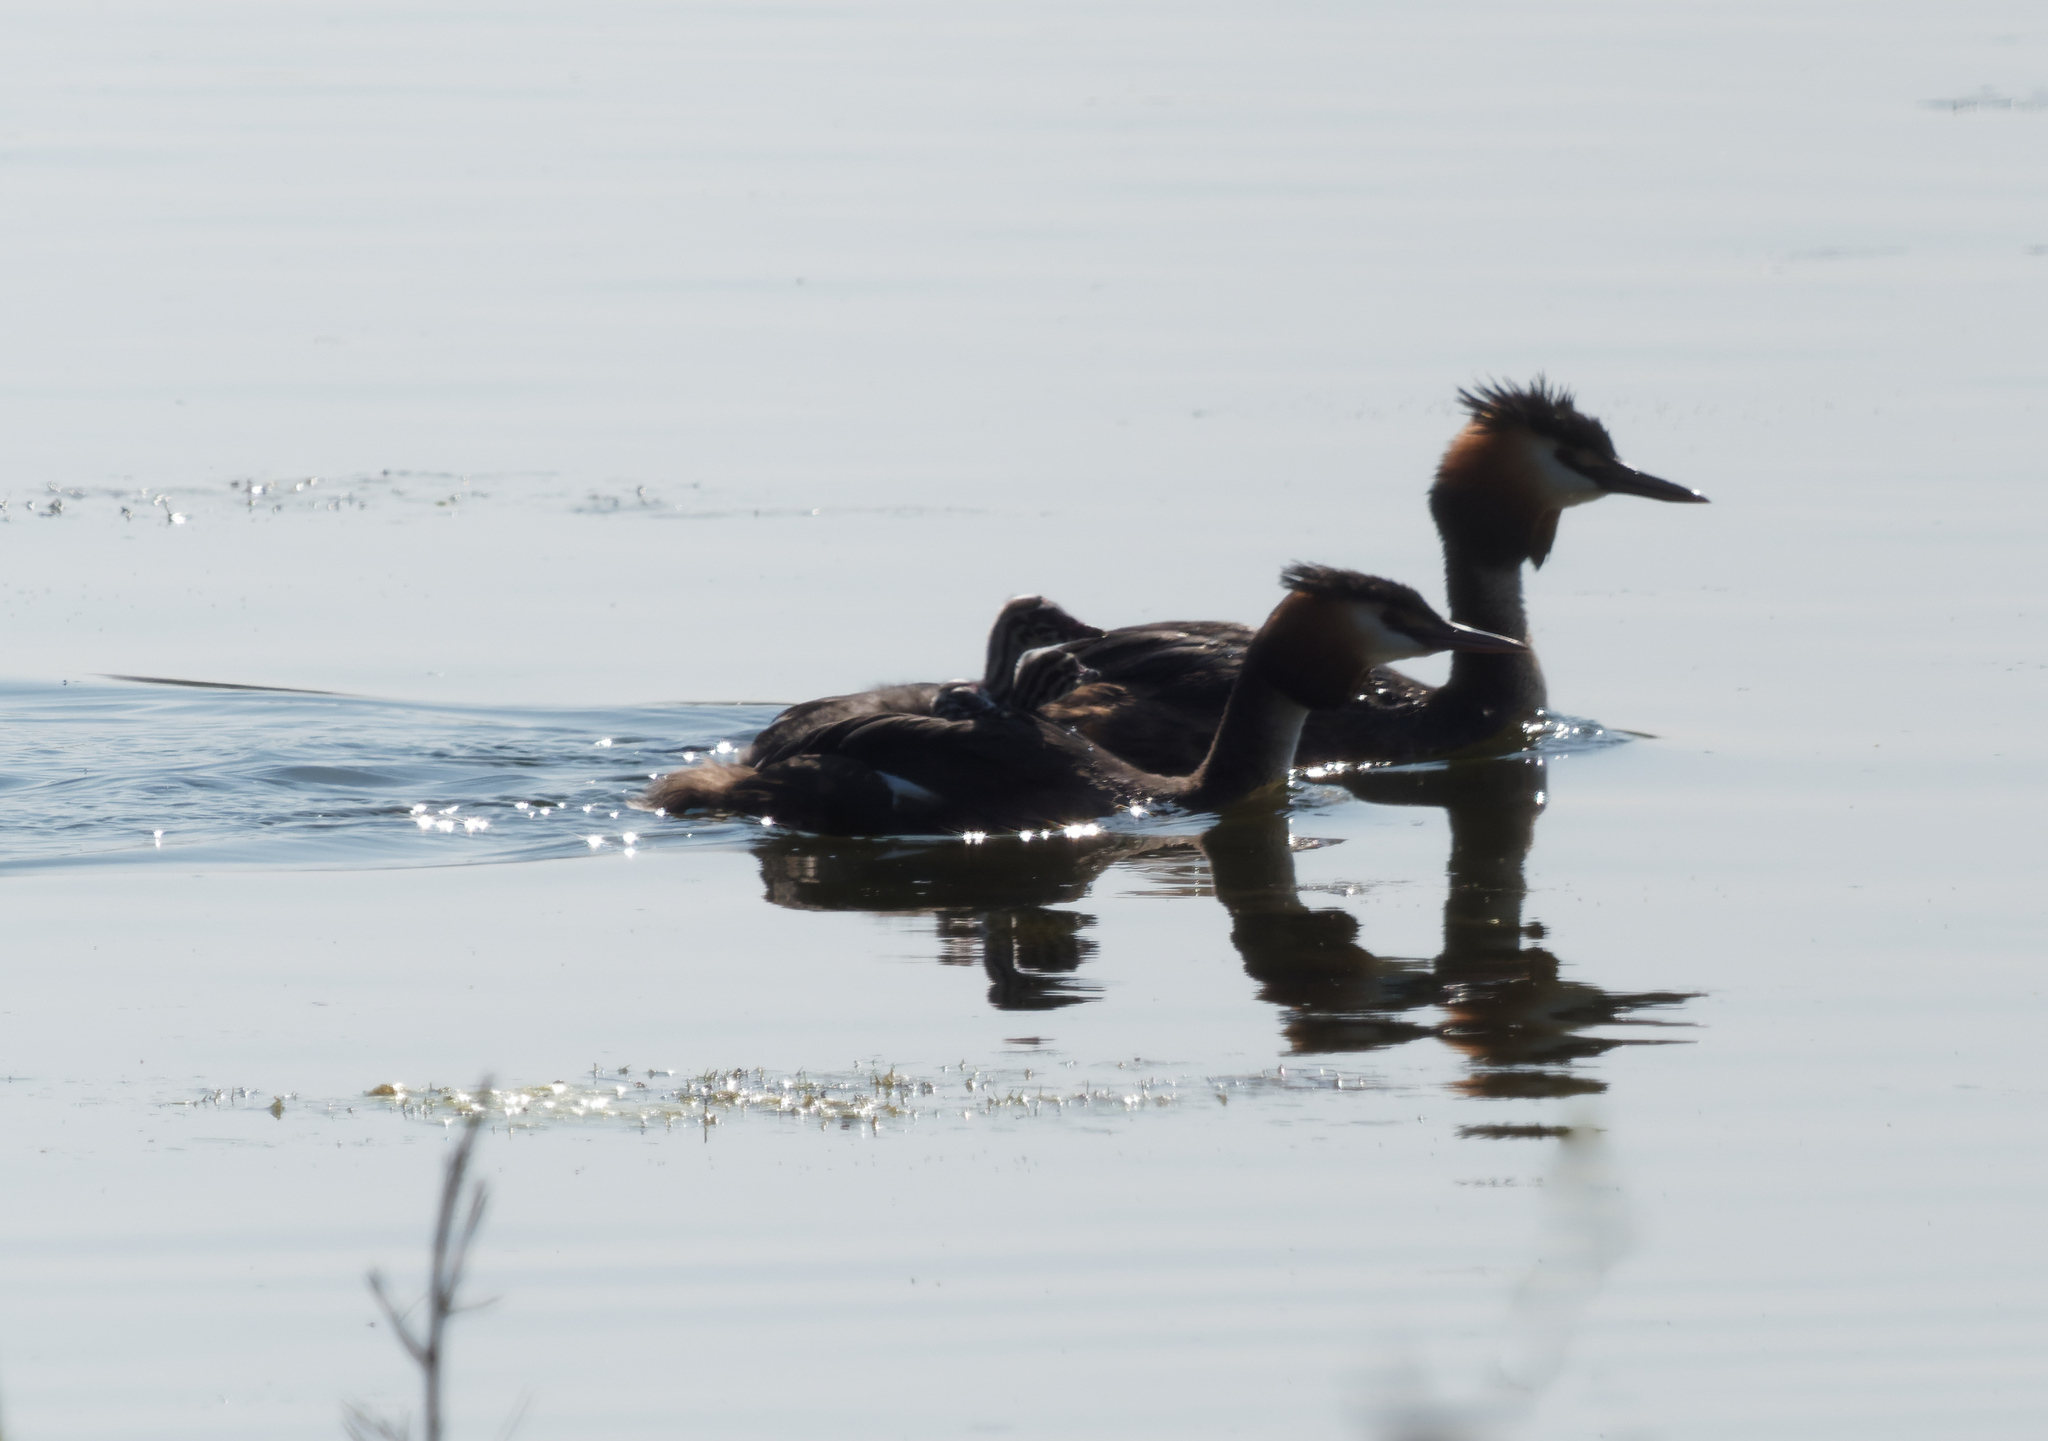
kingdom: Animalia
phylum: Chordata
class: Aves
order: Podicipediformes
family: Podicipedidae
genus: Podiceps
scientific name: Podiceps cristatus
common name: Great crested grebe
